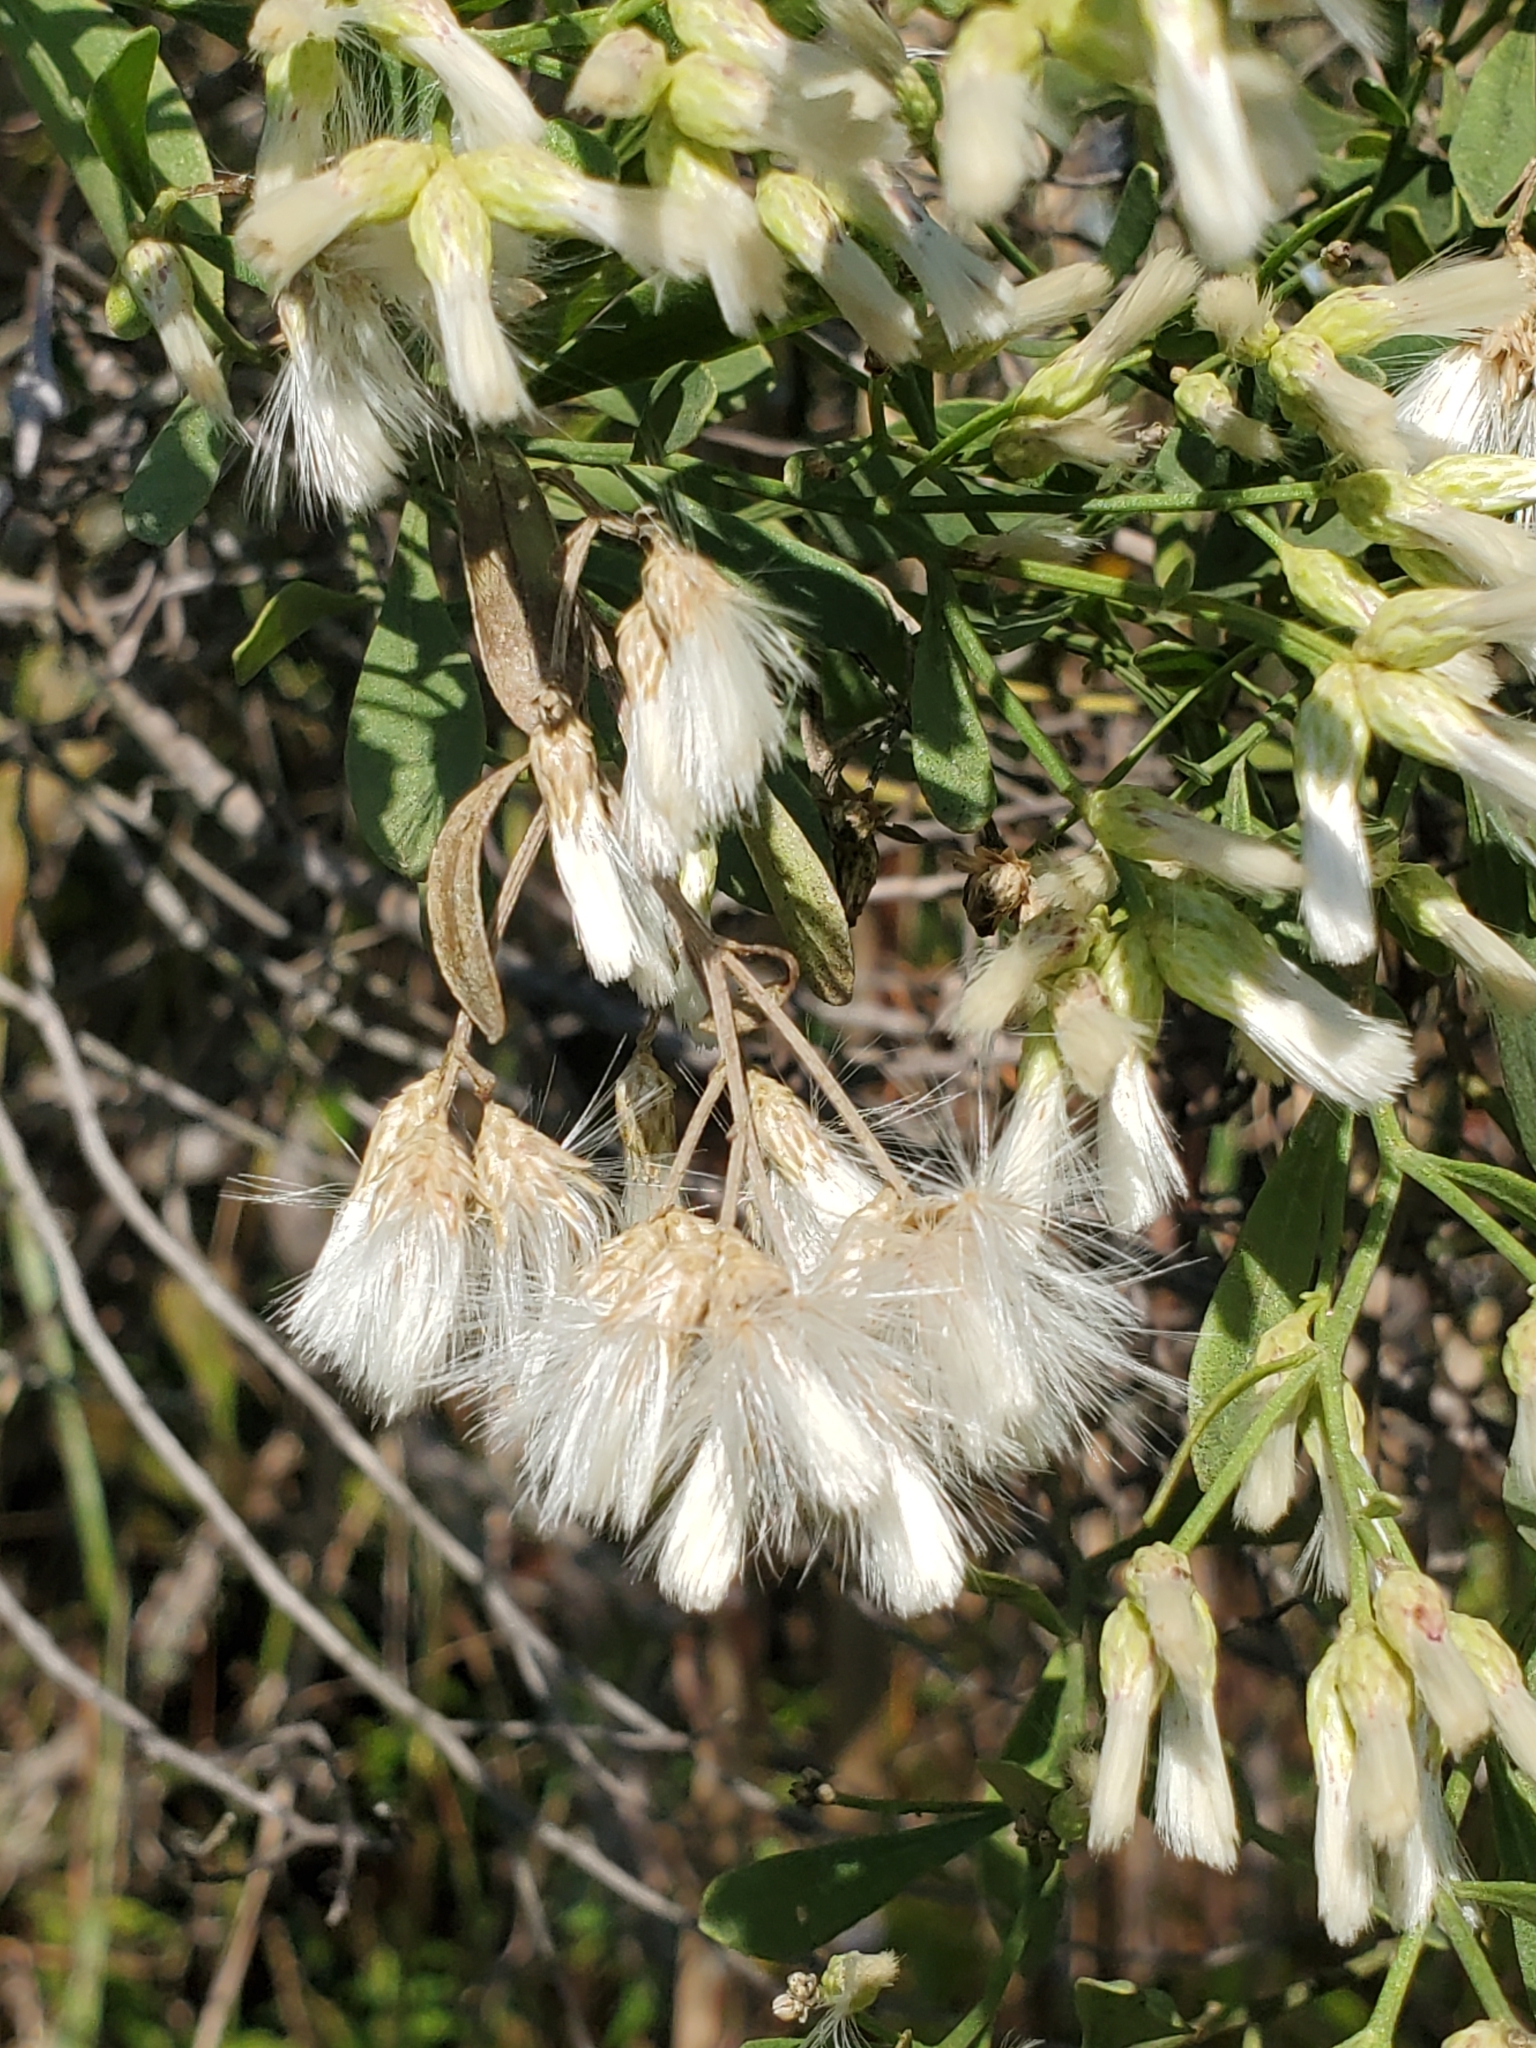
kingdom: Plantae
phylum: Tracheophyta
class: Magnoliopsida
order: Asterales
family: Asteraceae
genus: Baccharis
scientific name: Baccharis halimifolia
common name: Eastern baccharis
